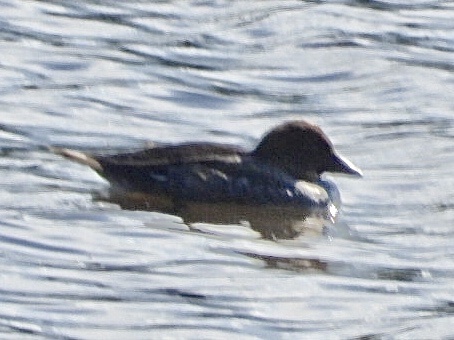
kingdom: Animalia
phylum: Chordata
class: Aves
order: Anseriformes
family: Anatidae
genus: Bucephala
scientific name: Bucephala clangula
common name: Common goldeneye
